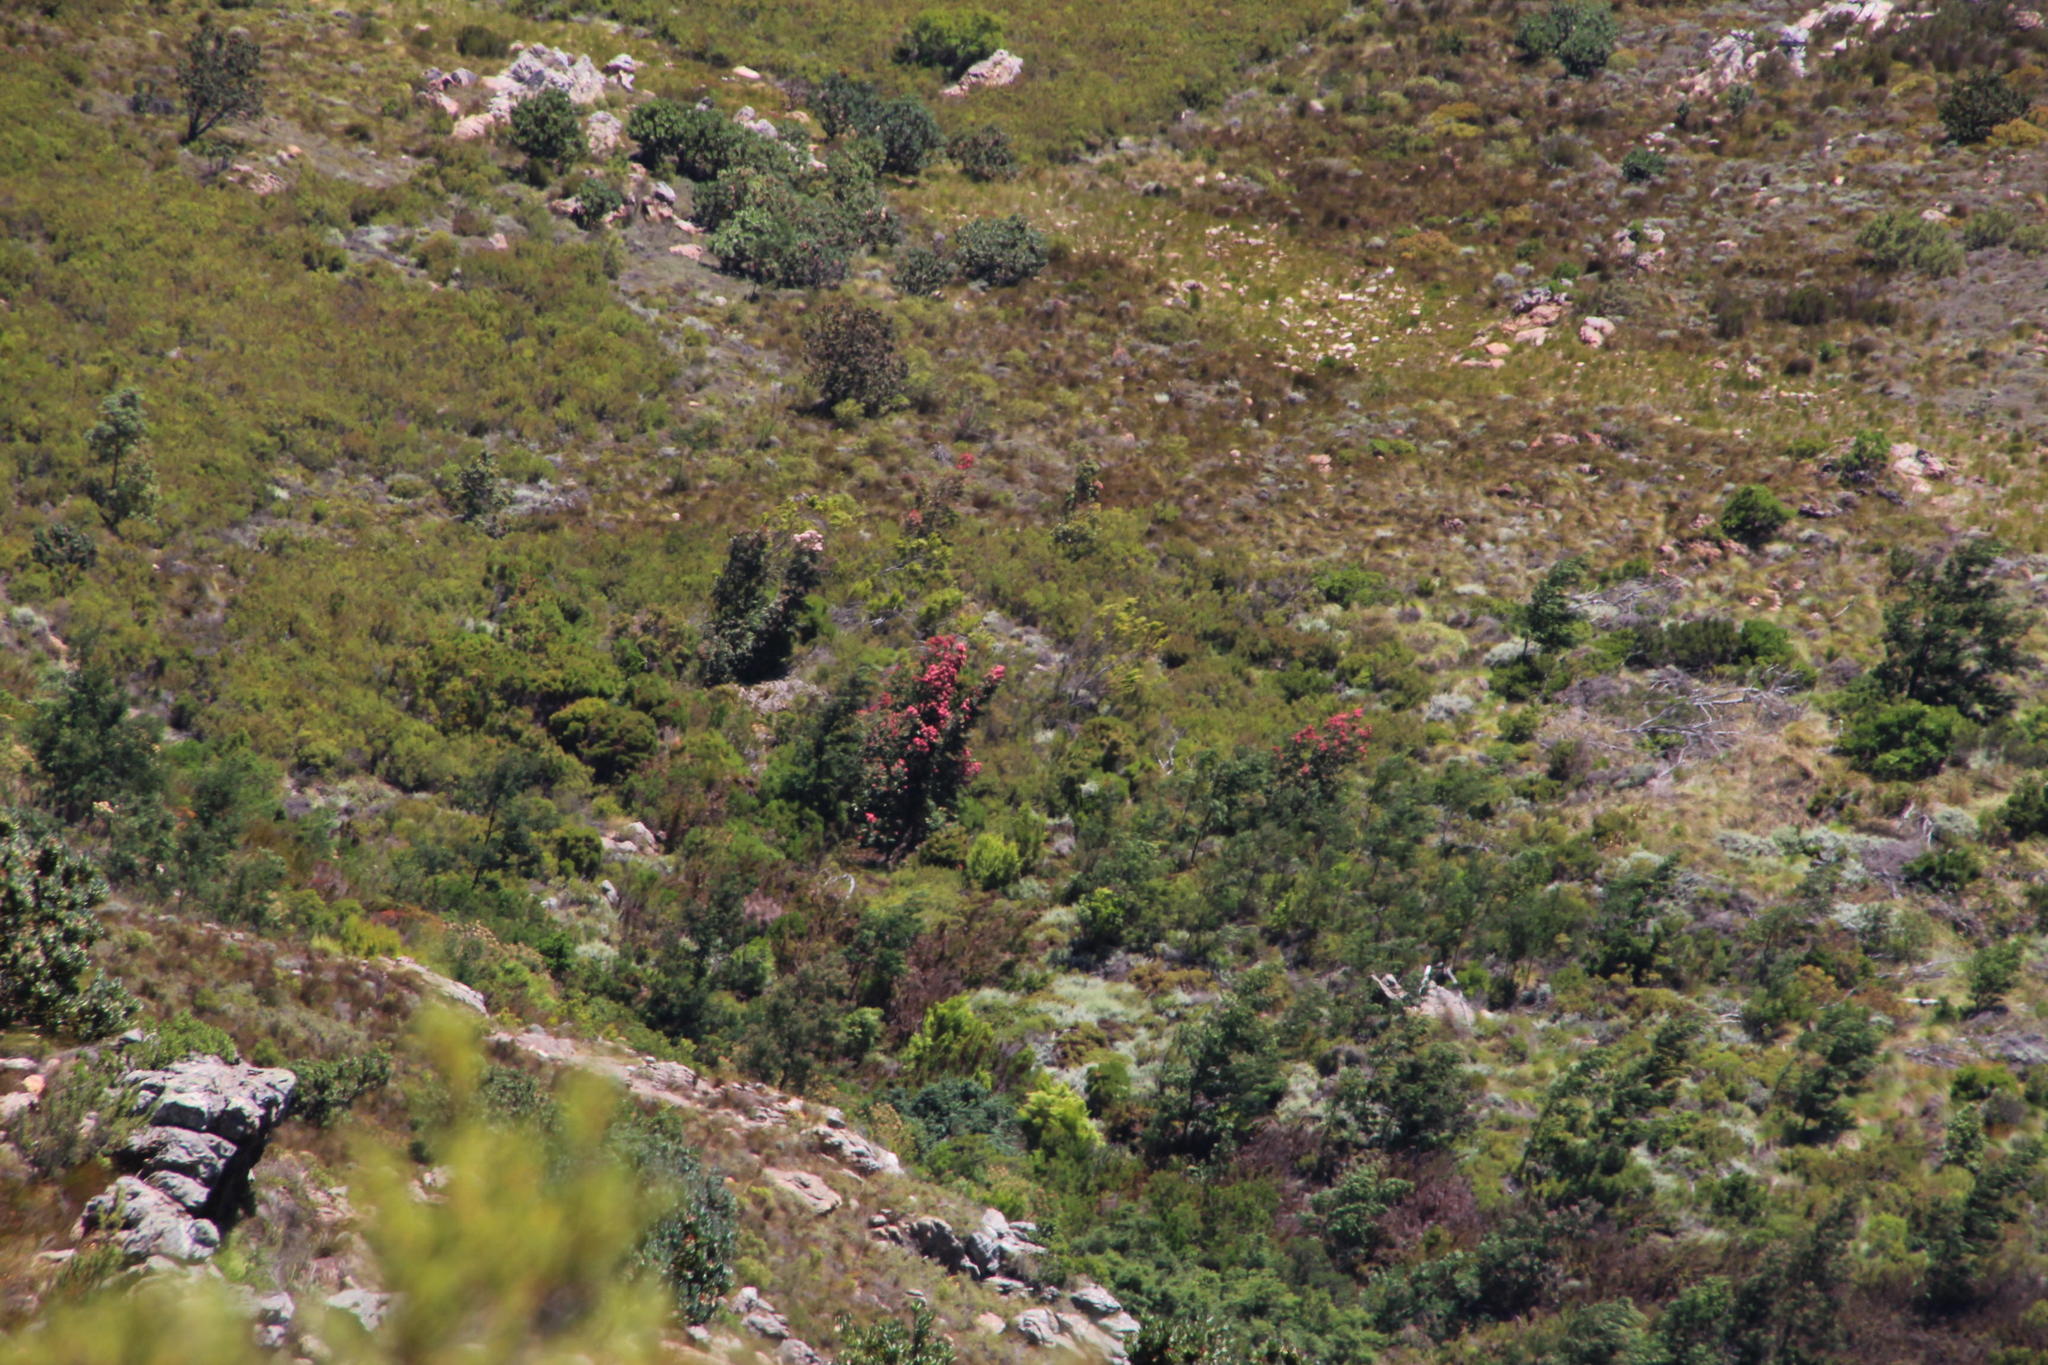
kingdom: Plantae
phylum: Tracheophyta
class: Magnoliopsida
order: Myrtales
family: Myrtaceae
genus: Corymbia
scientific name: Corymbia ficifolia
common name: Redflower gum
